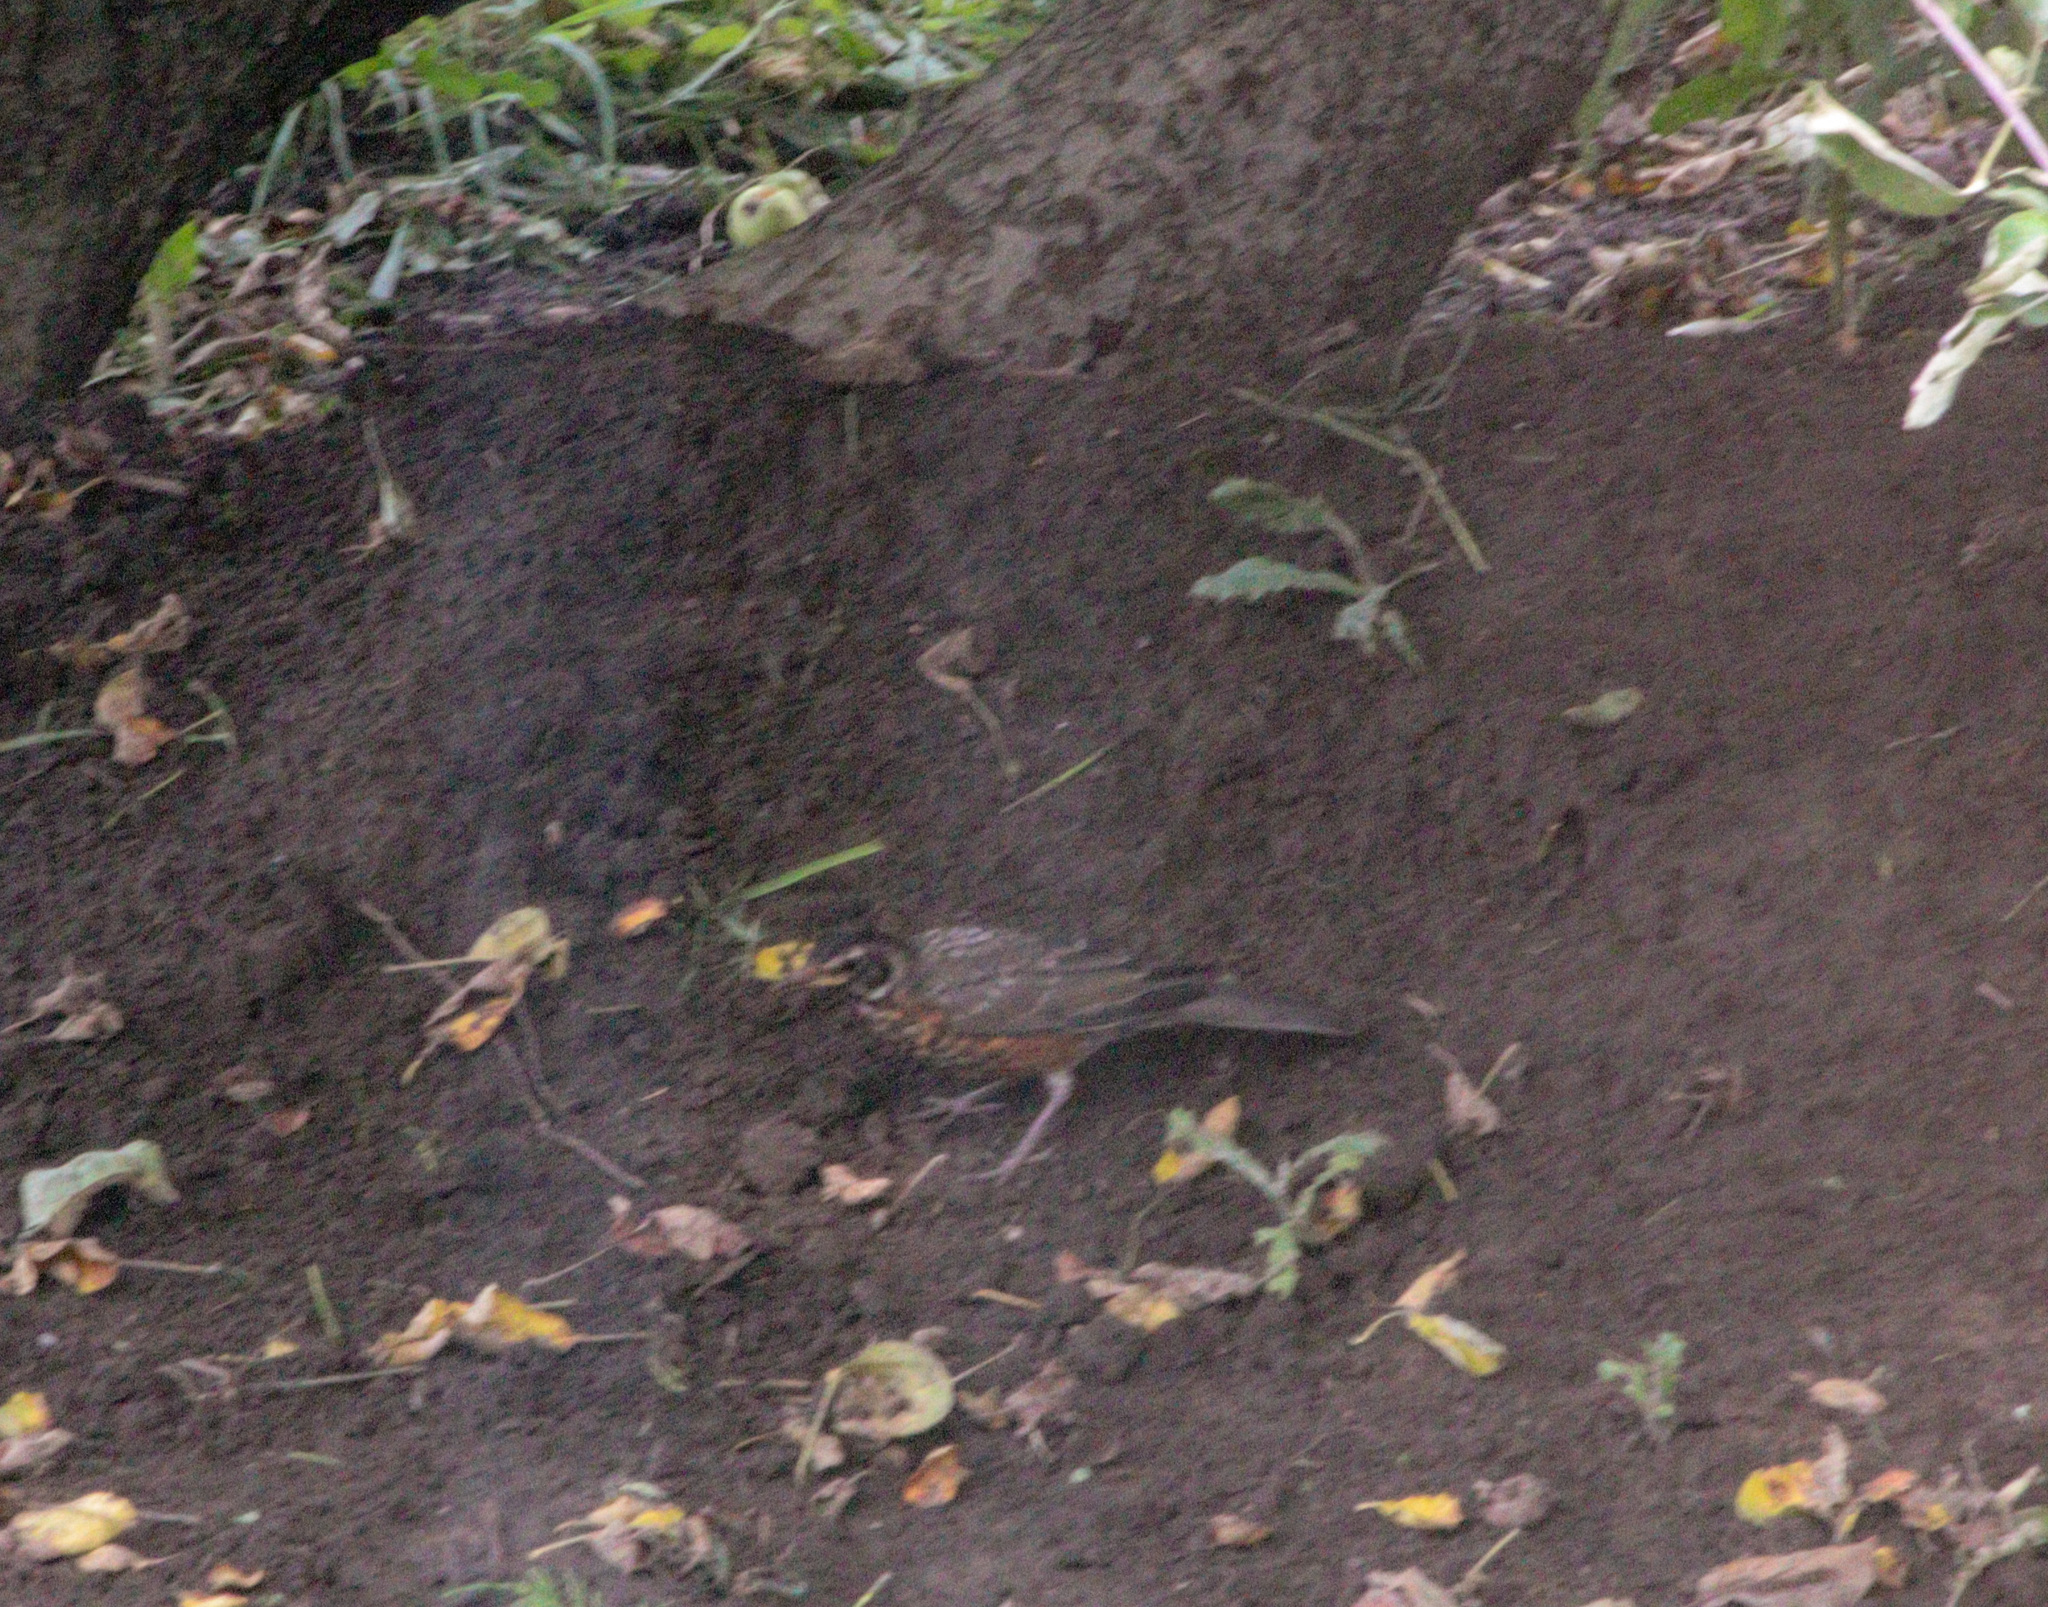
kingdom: Animalia
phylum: Chordata
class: Aves
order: Passeriformes
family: Turdidae
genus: Turdus
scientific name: Turdus migratorius
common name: American robin
